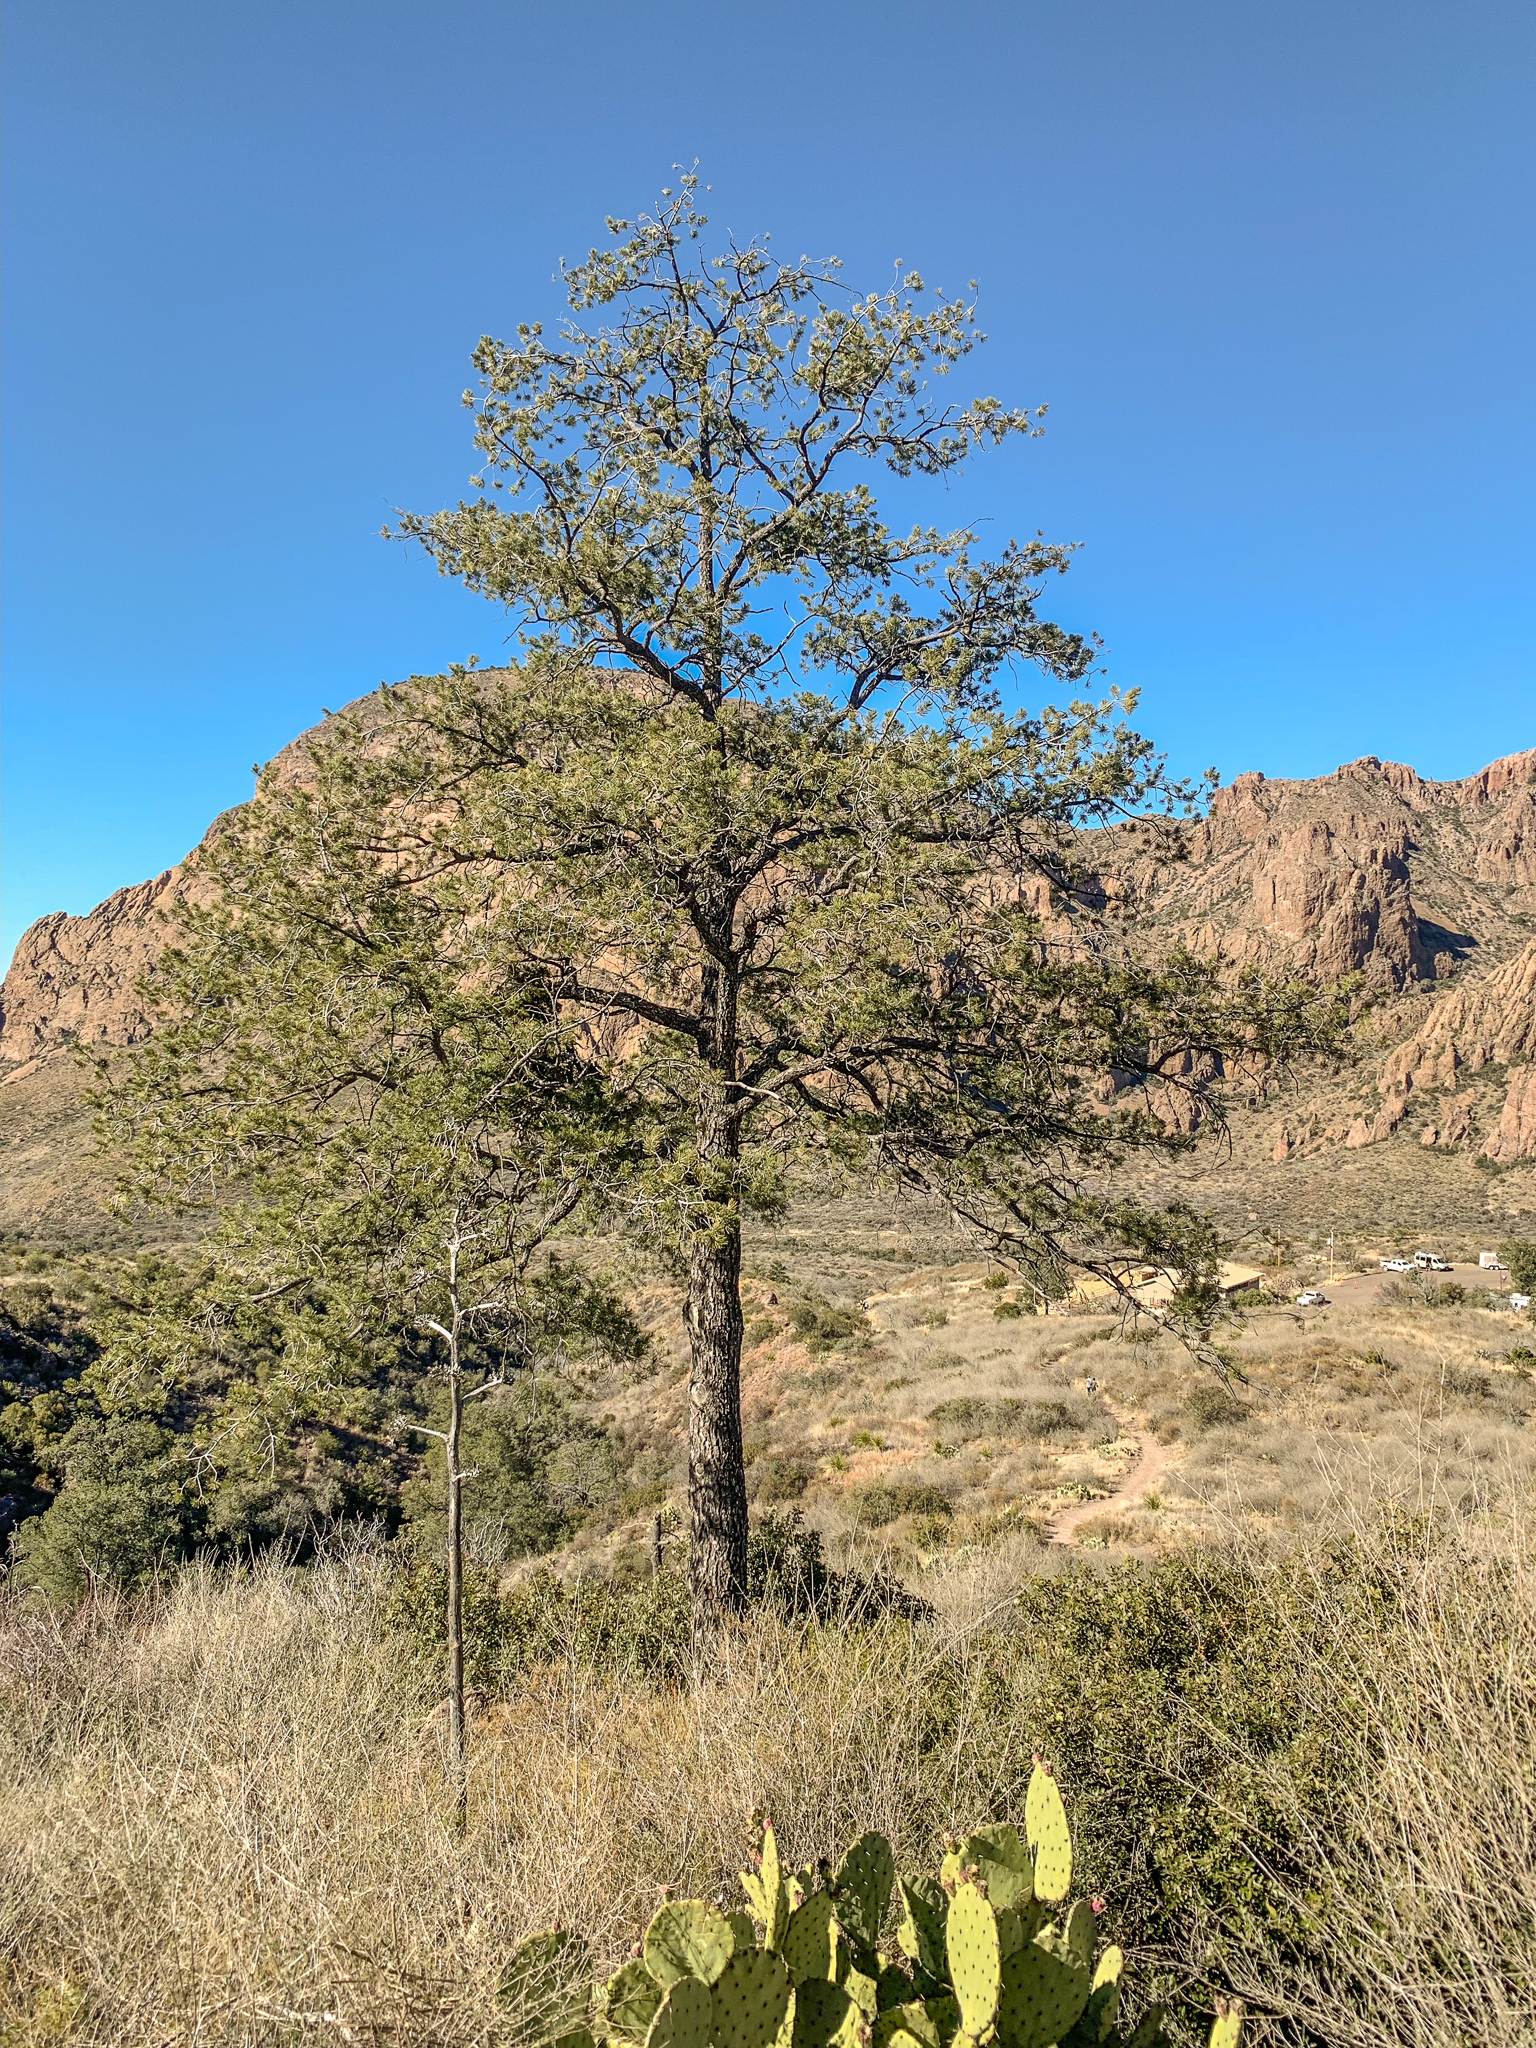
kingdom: Plantae
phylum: Tracheophyta
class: Pinopsida
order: Pinales
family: Pinaceae
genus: Pinus
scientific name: Pinus cembroides
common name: Mexican nut pine
